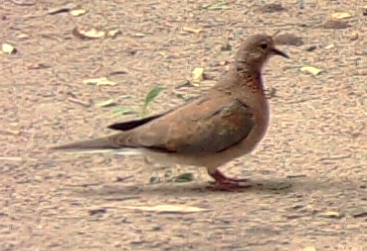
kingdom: Animalia
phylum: Chordata
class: Aves
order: Columbiformes
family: Columbidae
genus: Spilopelia
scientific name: Spilopelia senegalensis
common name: Laughing dove
